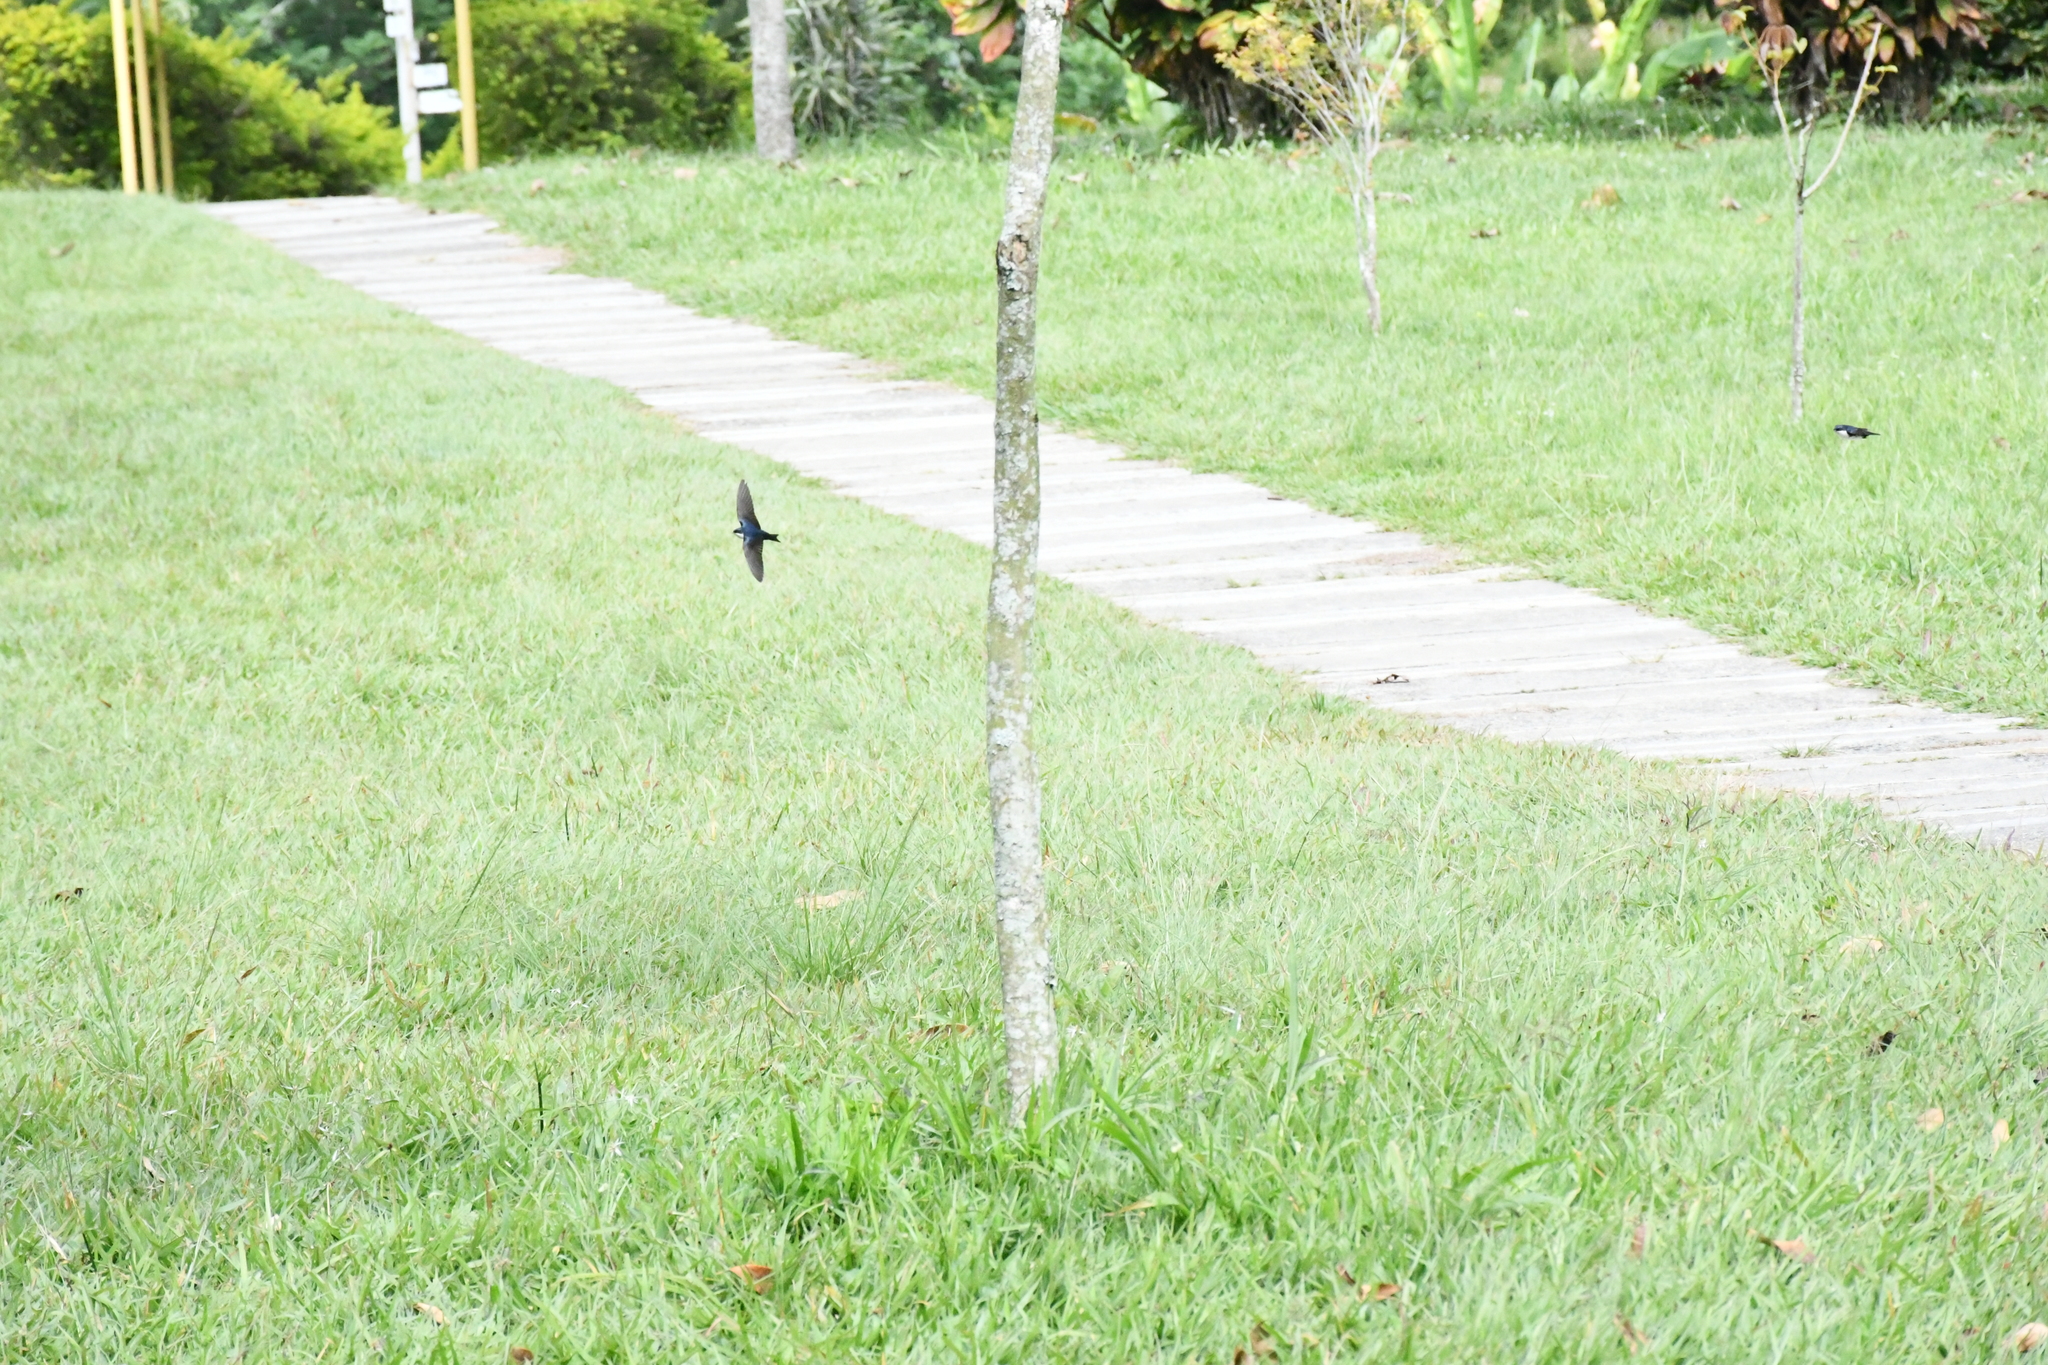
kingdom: Animalia
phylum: Chordata
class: Aves
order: Passeriformes
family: Hirundinidae
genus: Notiochelidon
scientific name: Notiochelidon cyanoleuca
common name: Blue-and-white swallow
